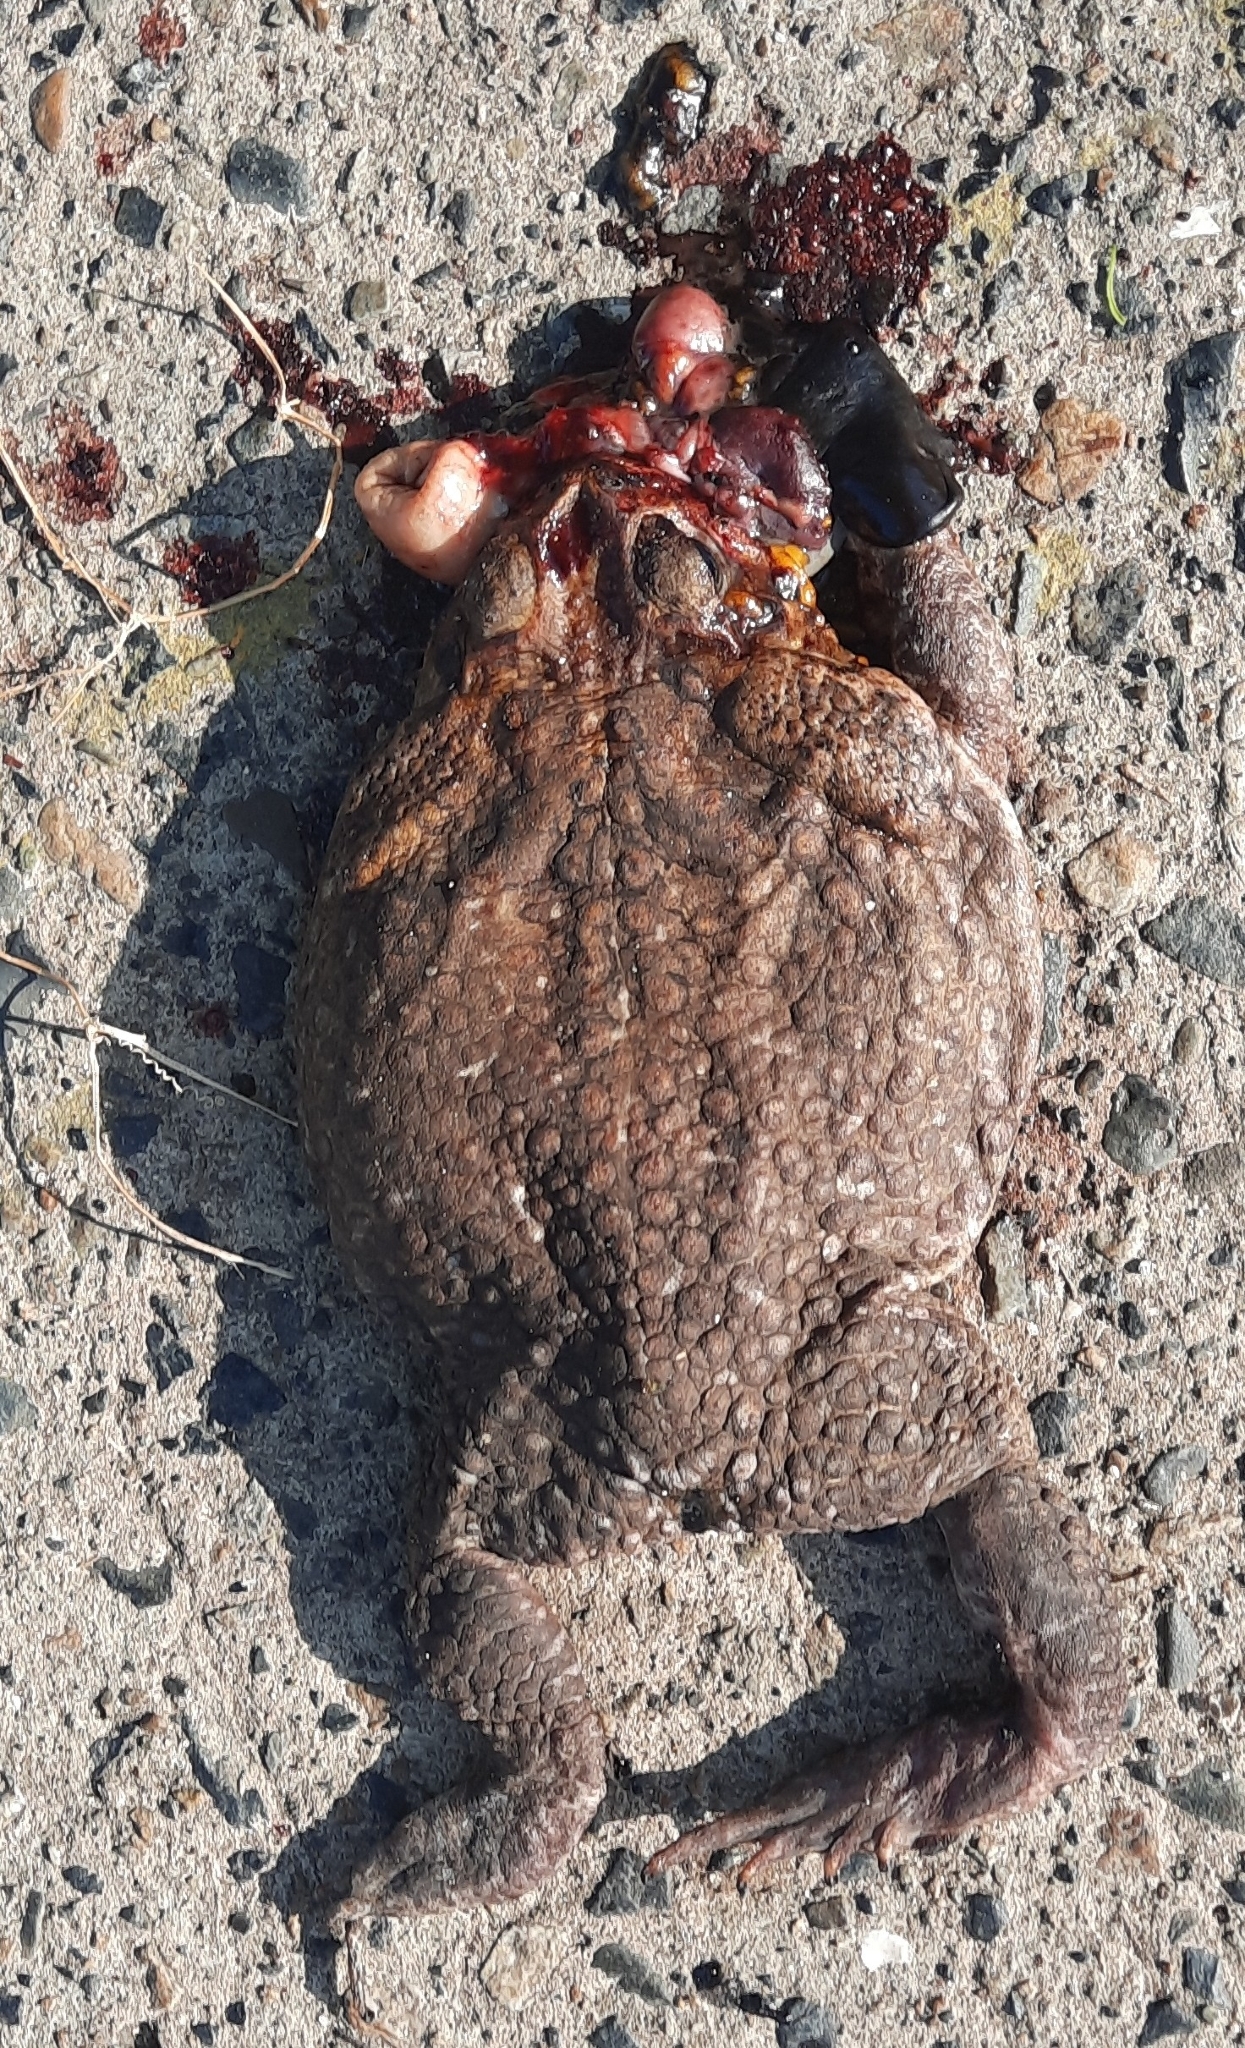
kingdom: Animalia
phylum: Chordata
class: Amphibia
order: Anura
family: Bufonidae
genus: Rhinella
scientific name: Rhinella horribilis
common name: Mesoamerican cane toad
